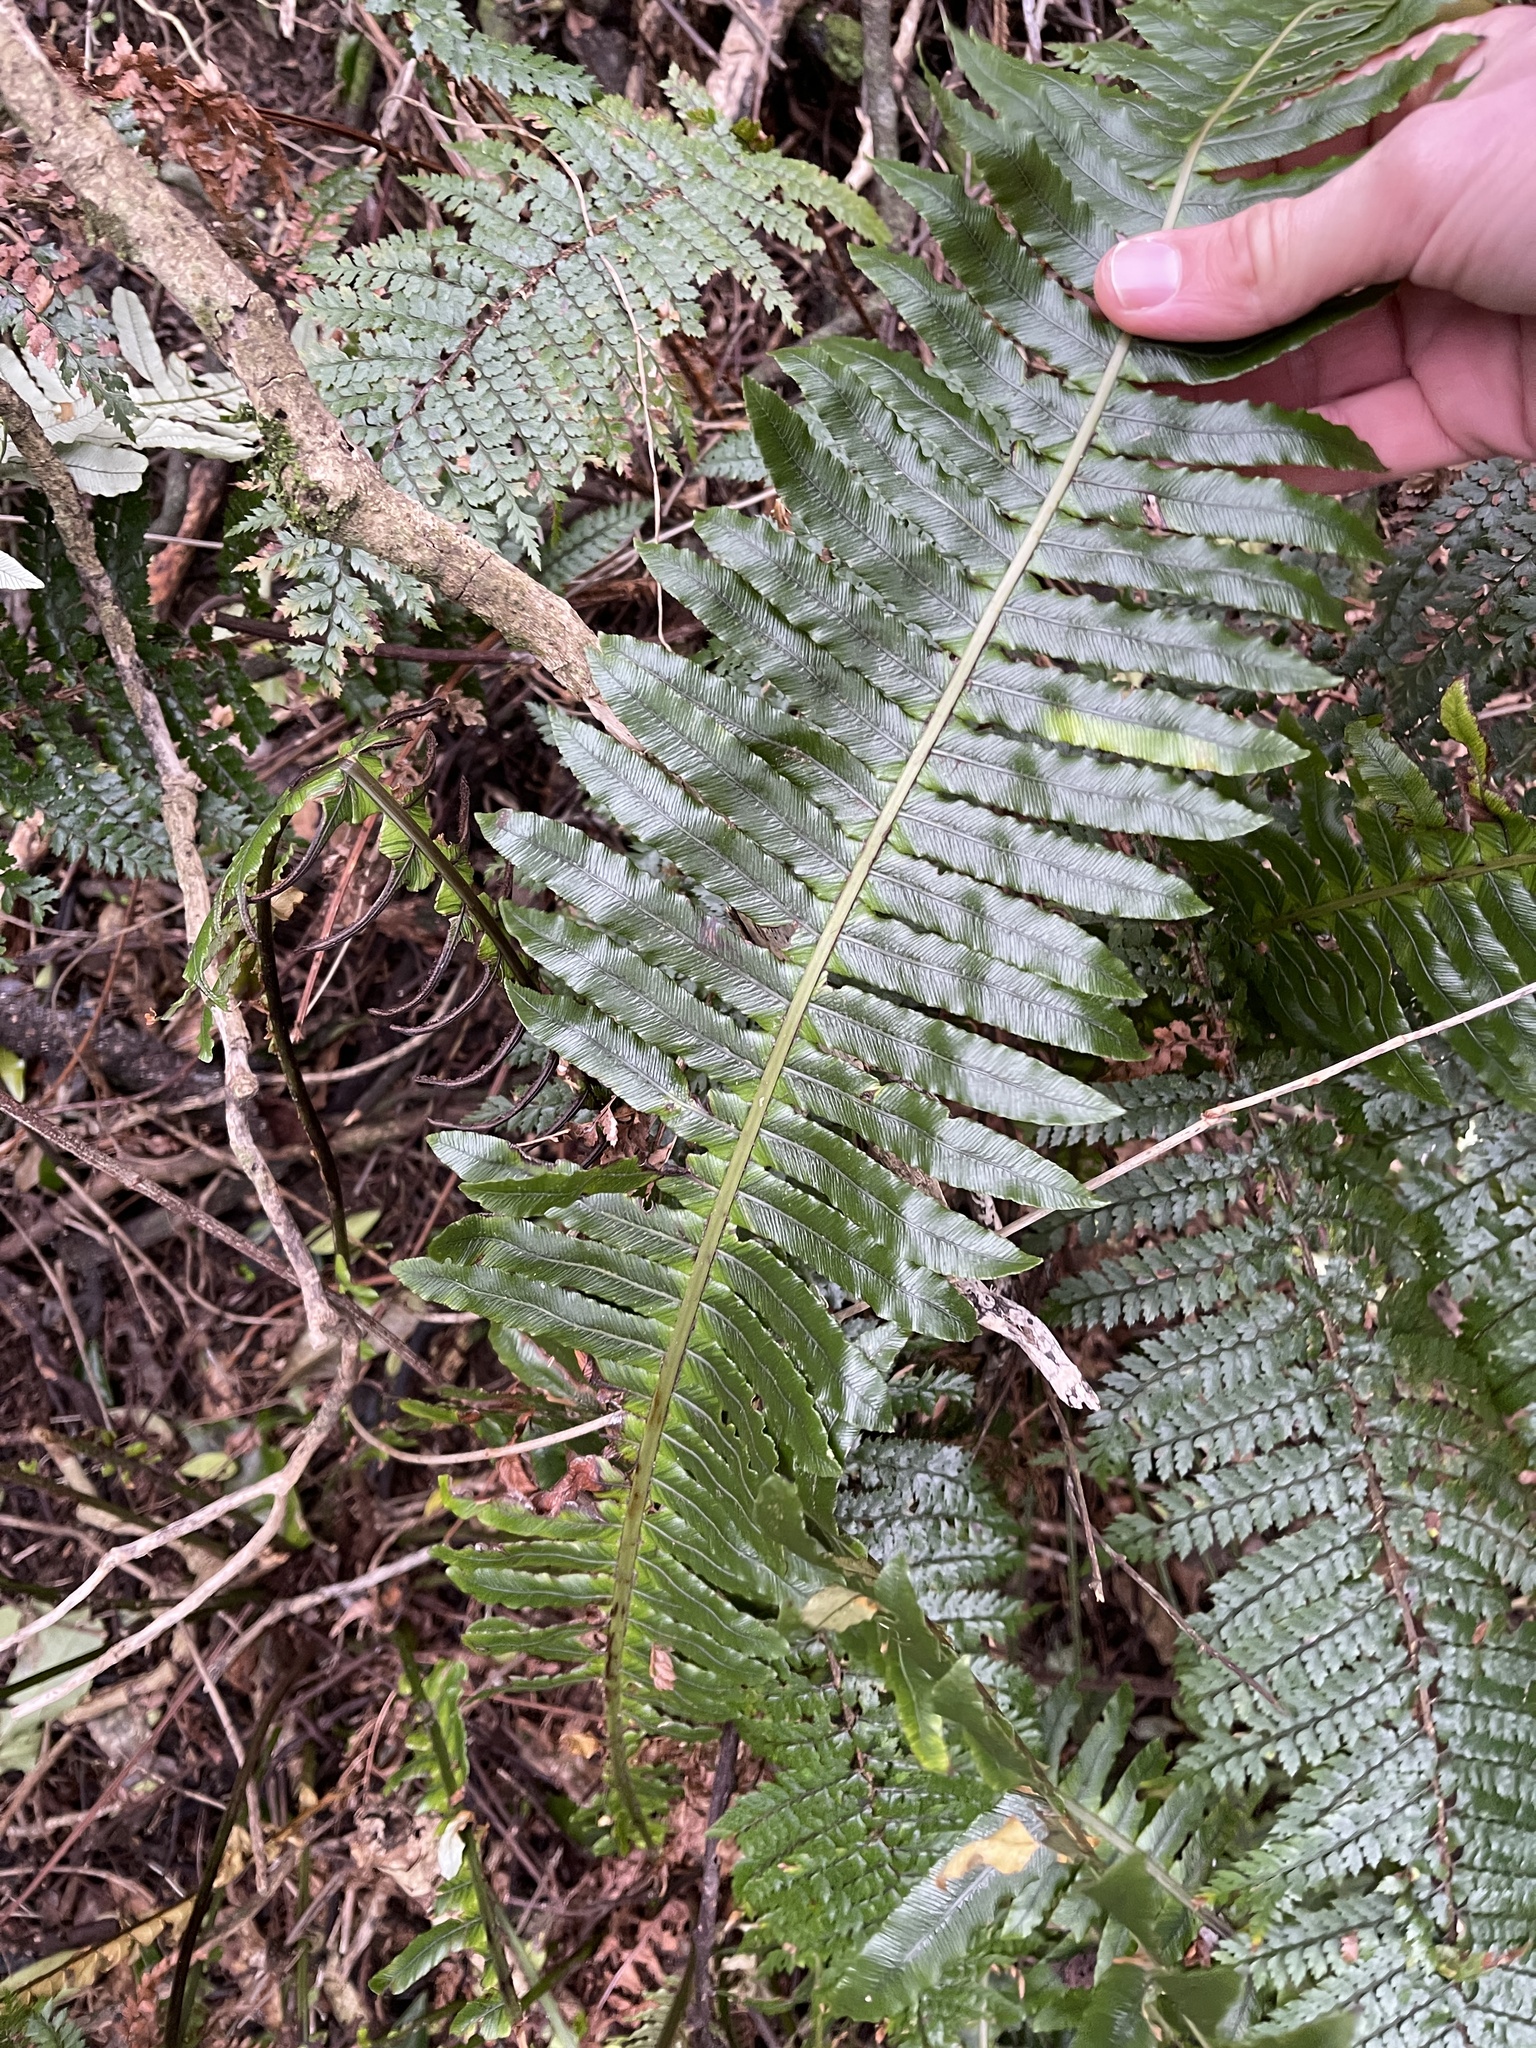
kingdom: Plantae
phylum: Tracheophyta
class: Polypodiopsida
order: Polypodiales
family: Blechnaceae
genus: Lomaria
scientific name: Lomaria discolor
